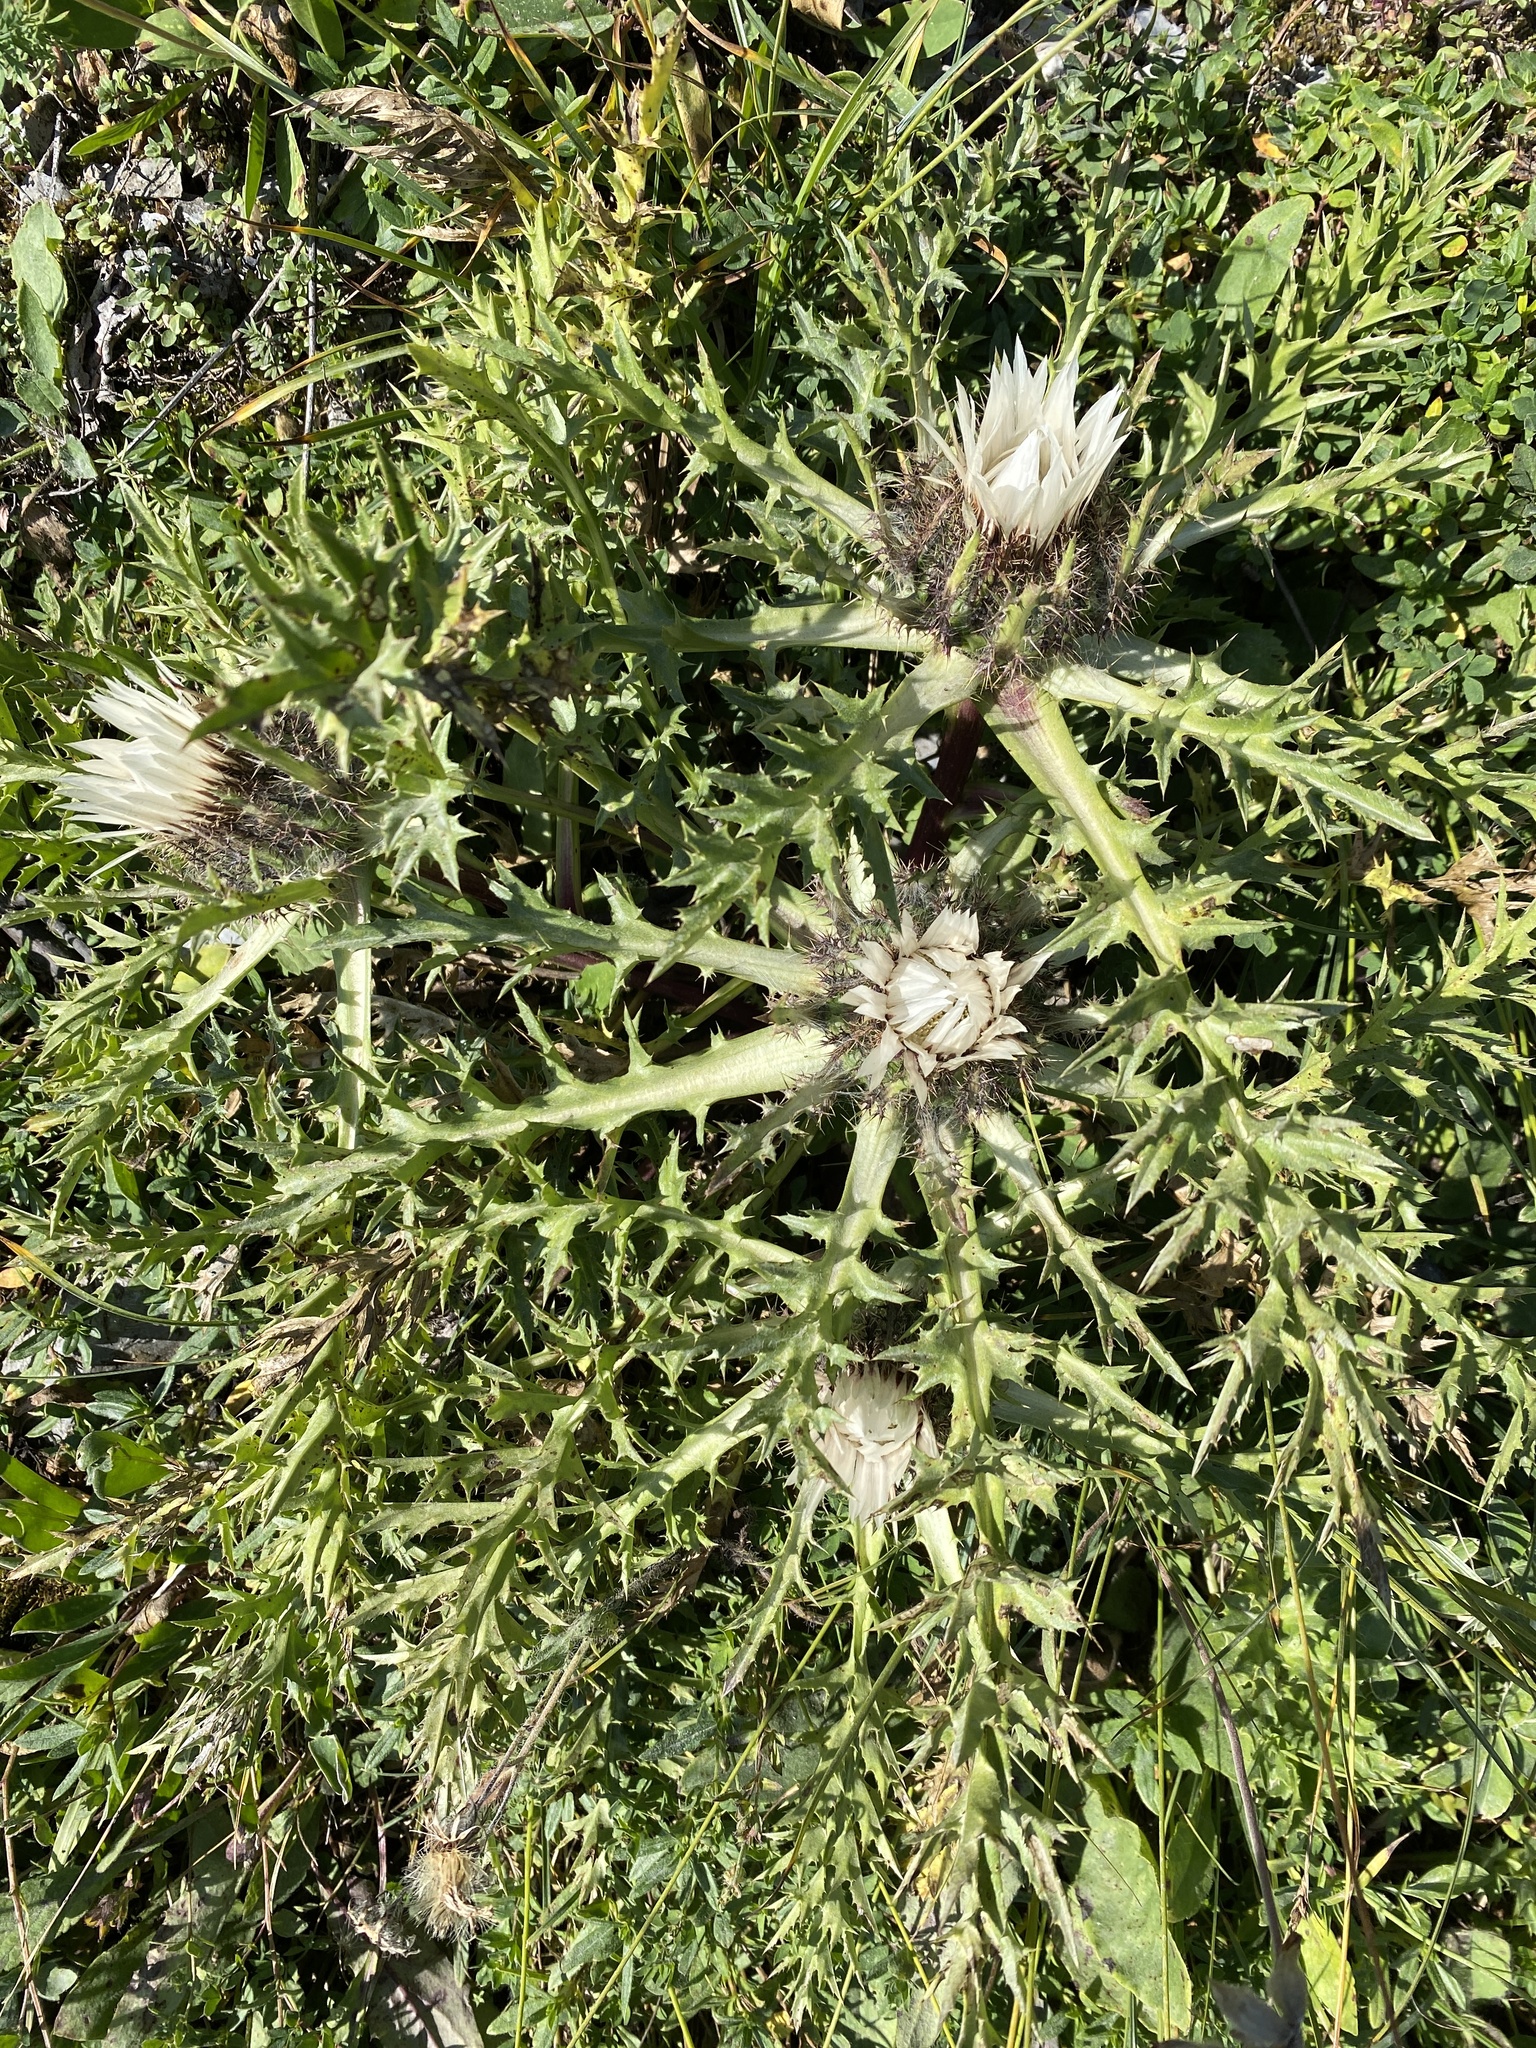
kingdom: Plantae
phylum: Tracheophyta
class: Magnoliopsida
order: Asterales
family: Asteraceae
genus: Carlina
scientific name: Carlina acaulis
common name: Stemless carline thistle
